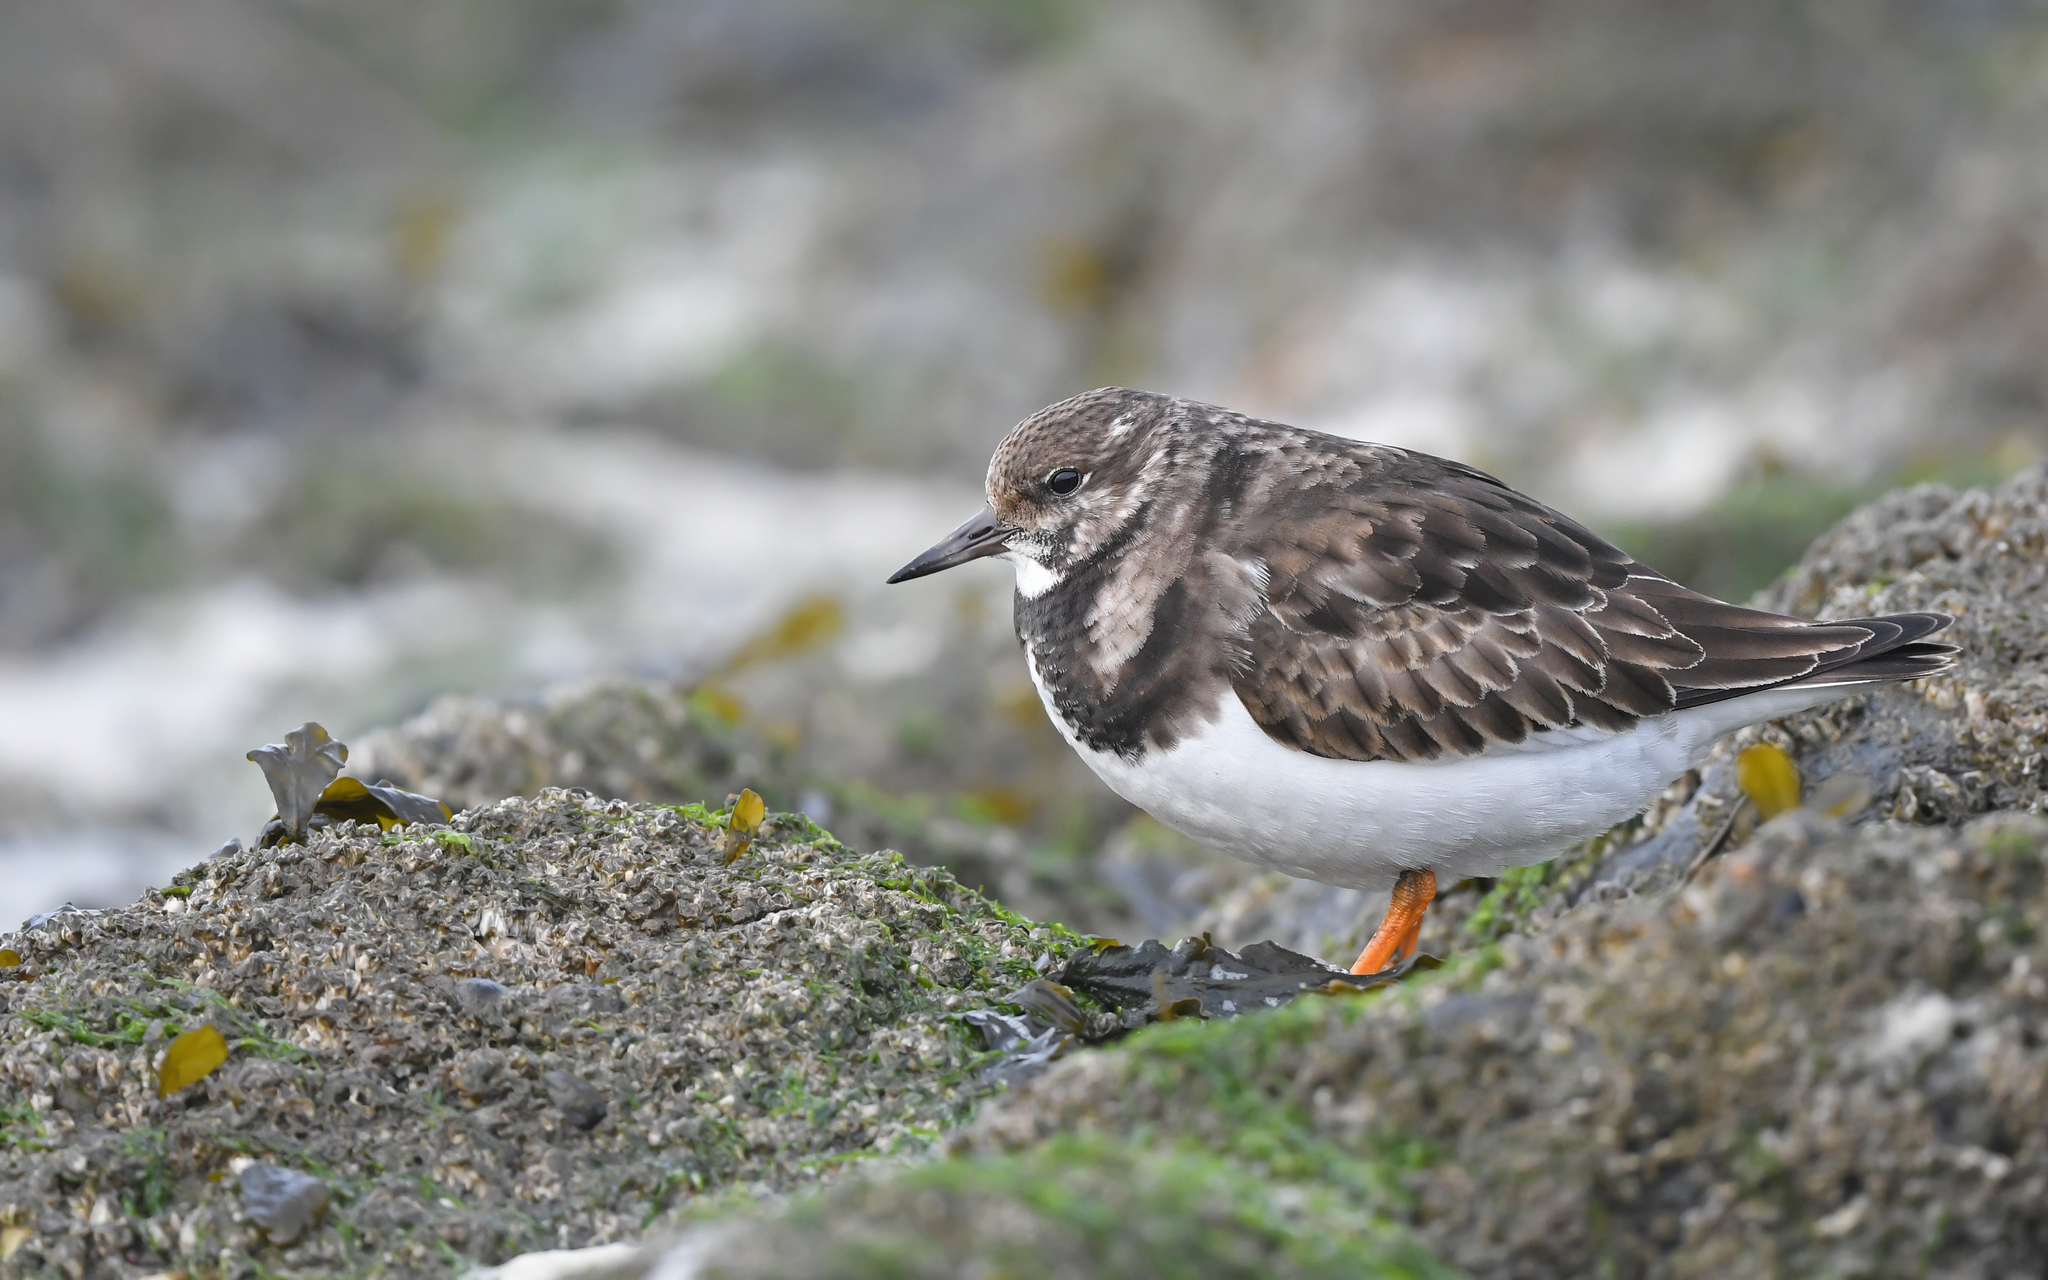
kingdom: Animalia
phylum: Chordata
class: Aves
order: Charadriiformes
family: Scolopacidae
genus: Arenaria
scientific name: Arenaria interpres
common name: Ruddy turnstone
